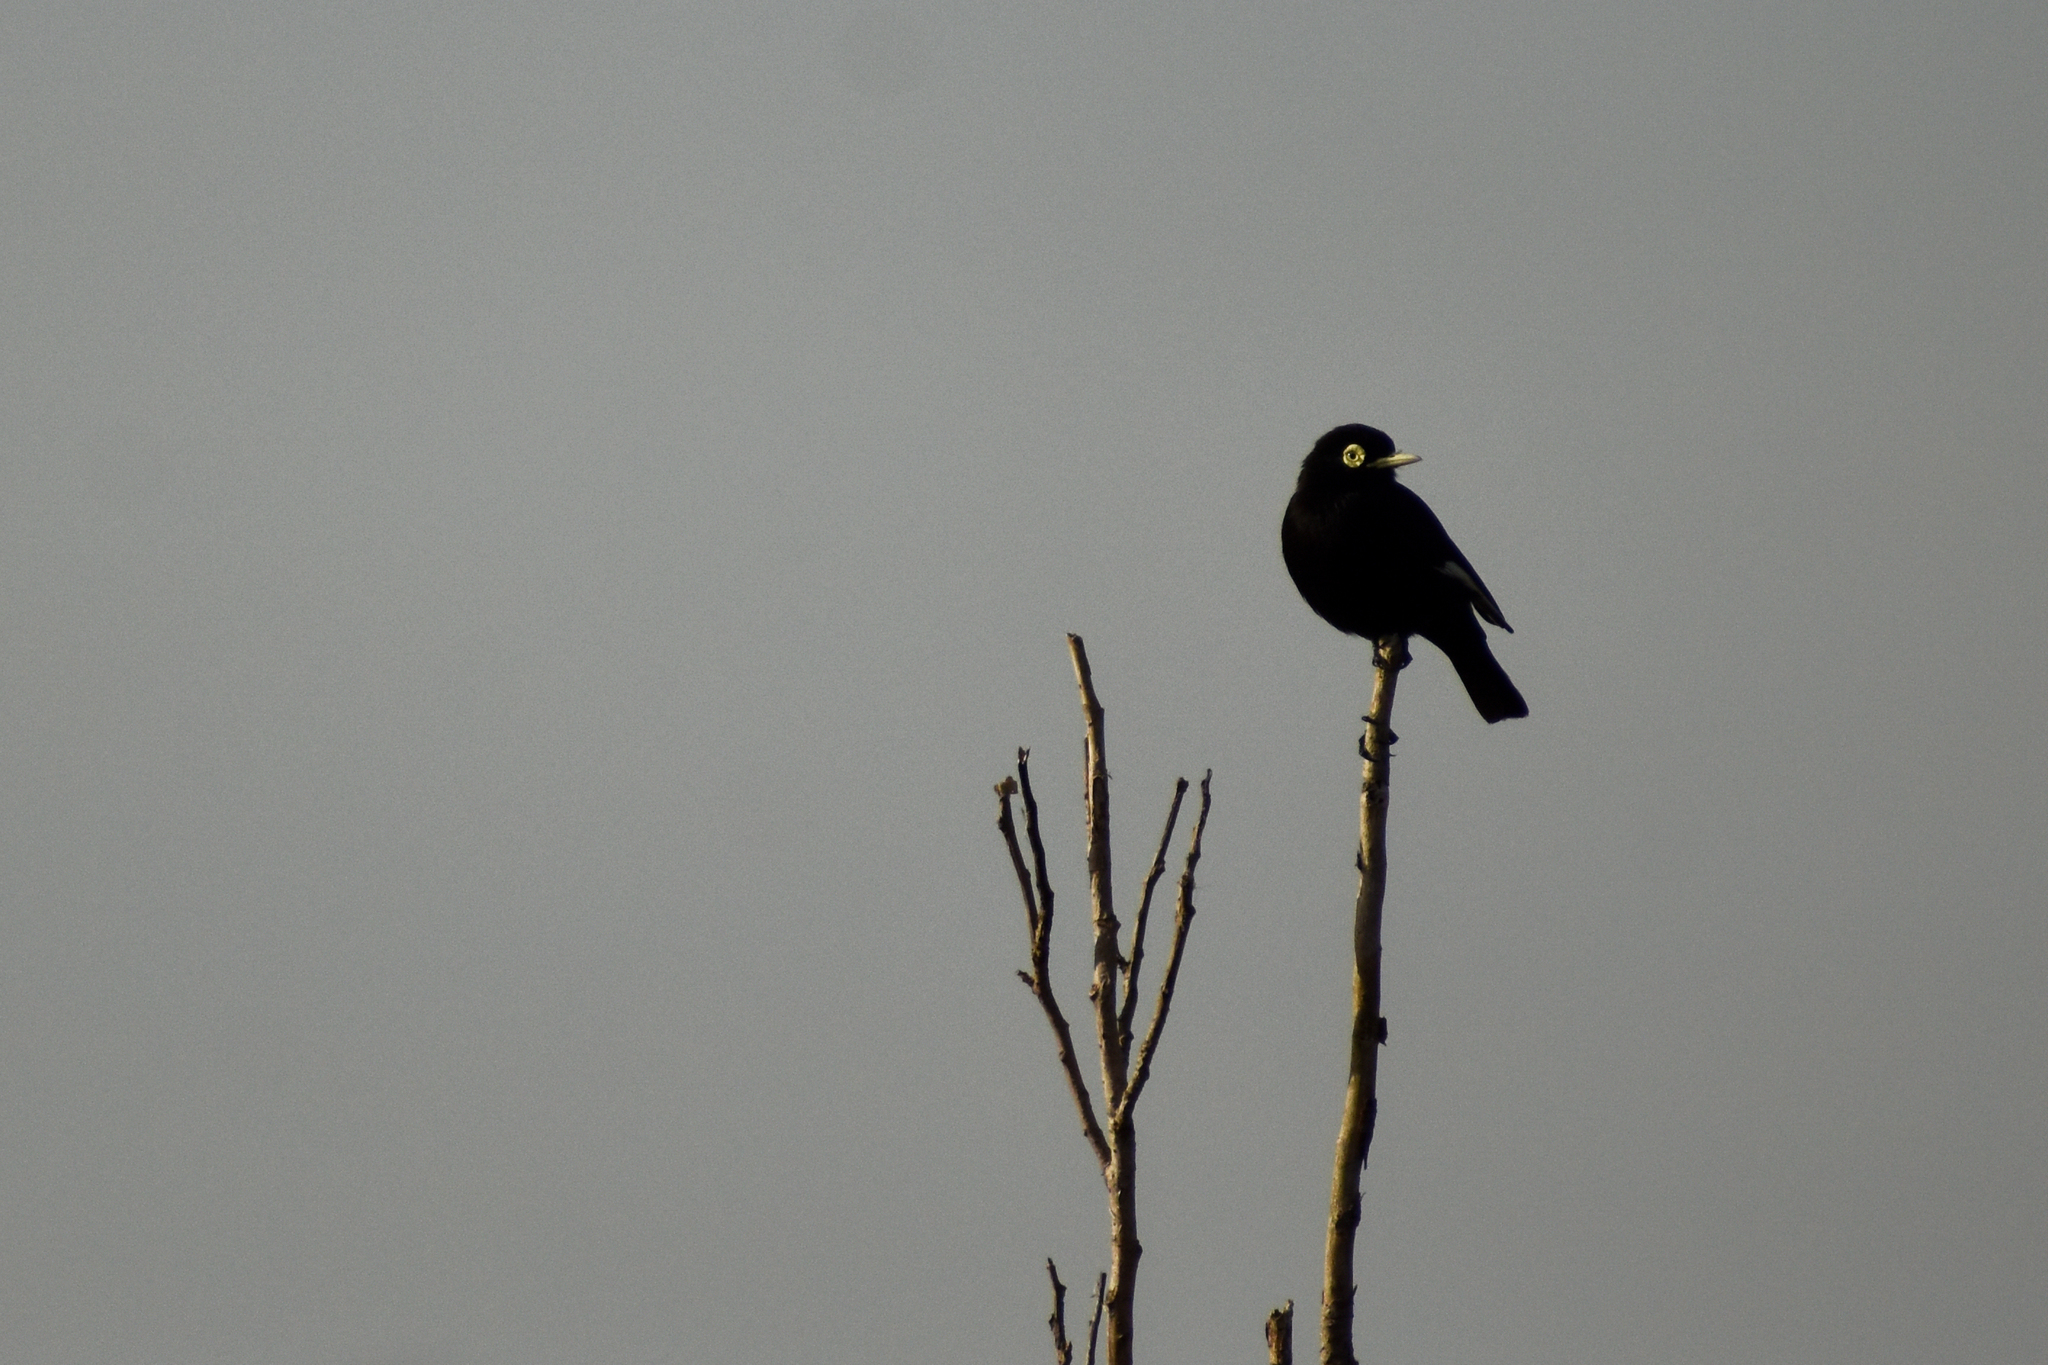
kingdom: Animalia
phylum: Chordata
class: Aves
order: Passeriformes
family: Tyrannidae
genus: Hymenops
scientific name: Hymenops perspicillatus
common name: Spectacled tyrant
